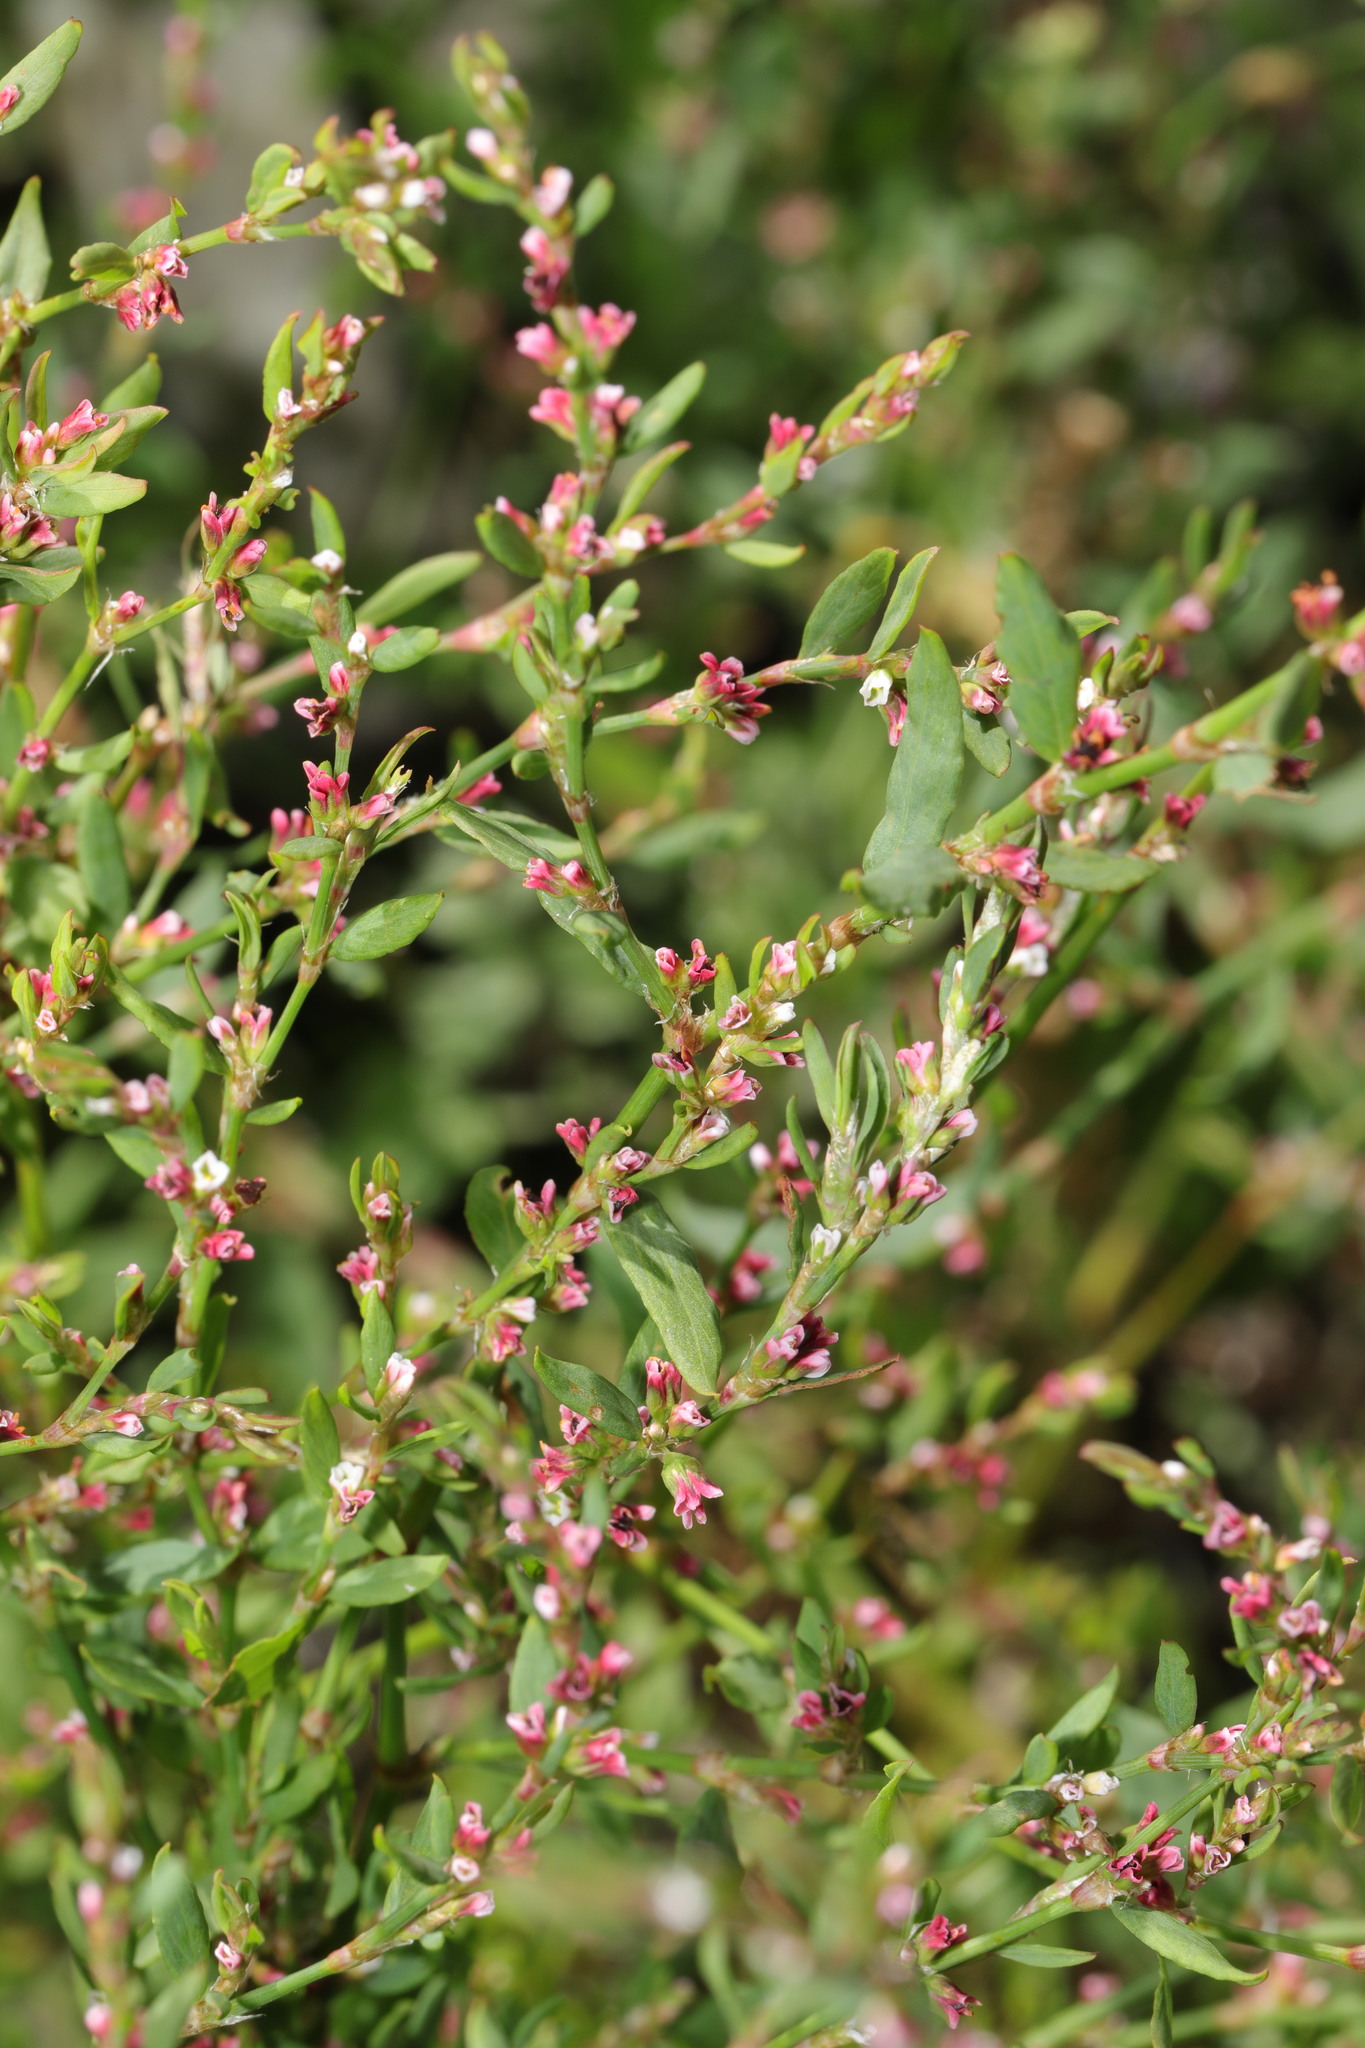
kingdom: Plantae
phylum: Tracheophyta
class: Magnoliopsida
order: Caryophyllales
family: Polygonaceae
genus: Polygonum
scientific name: Polygonum aviculare
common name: Prostrate knotweed
